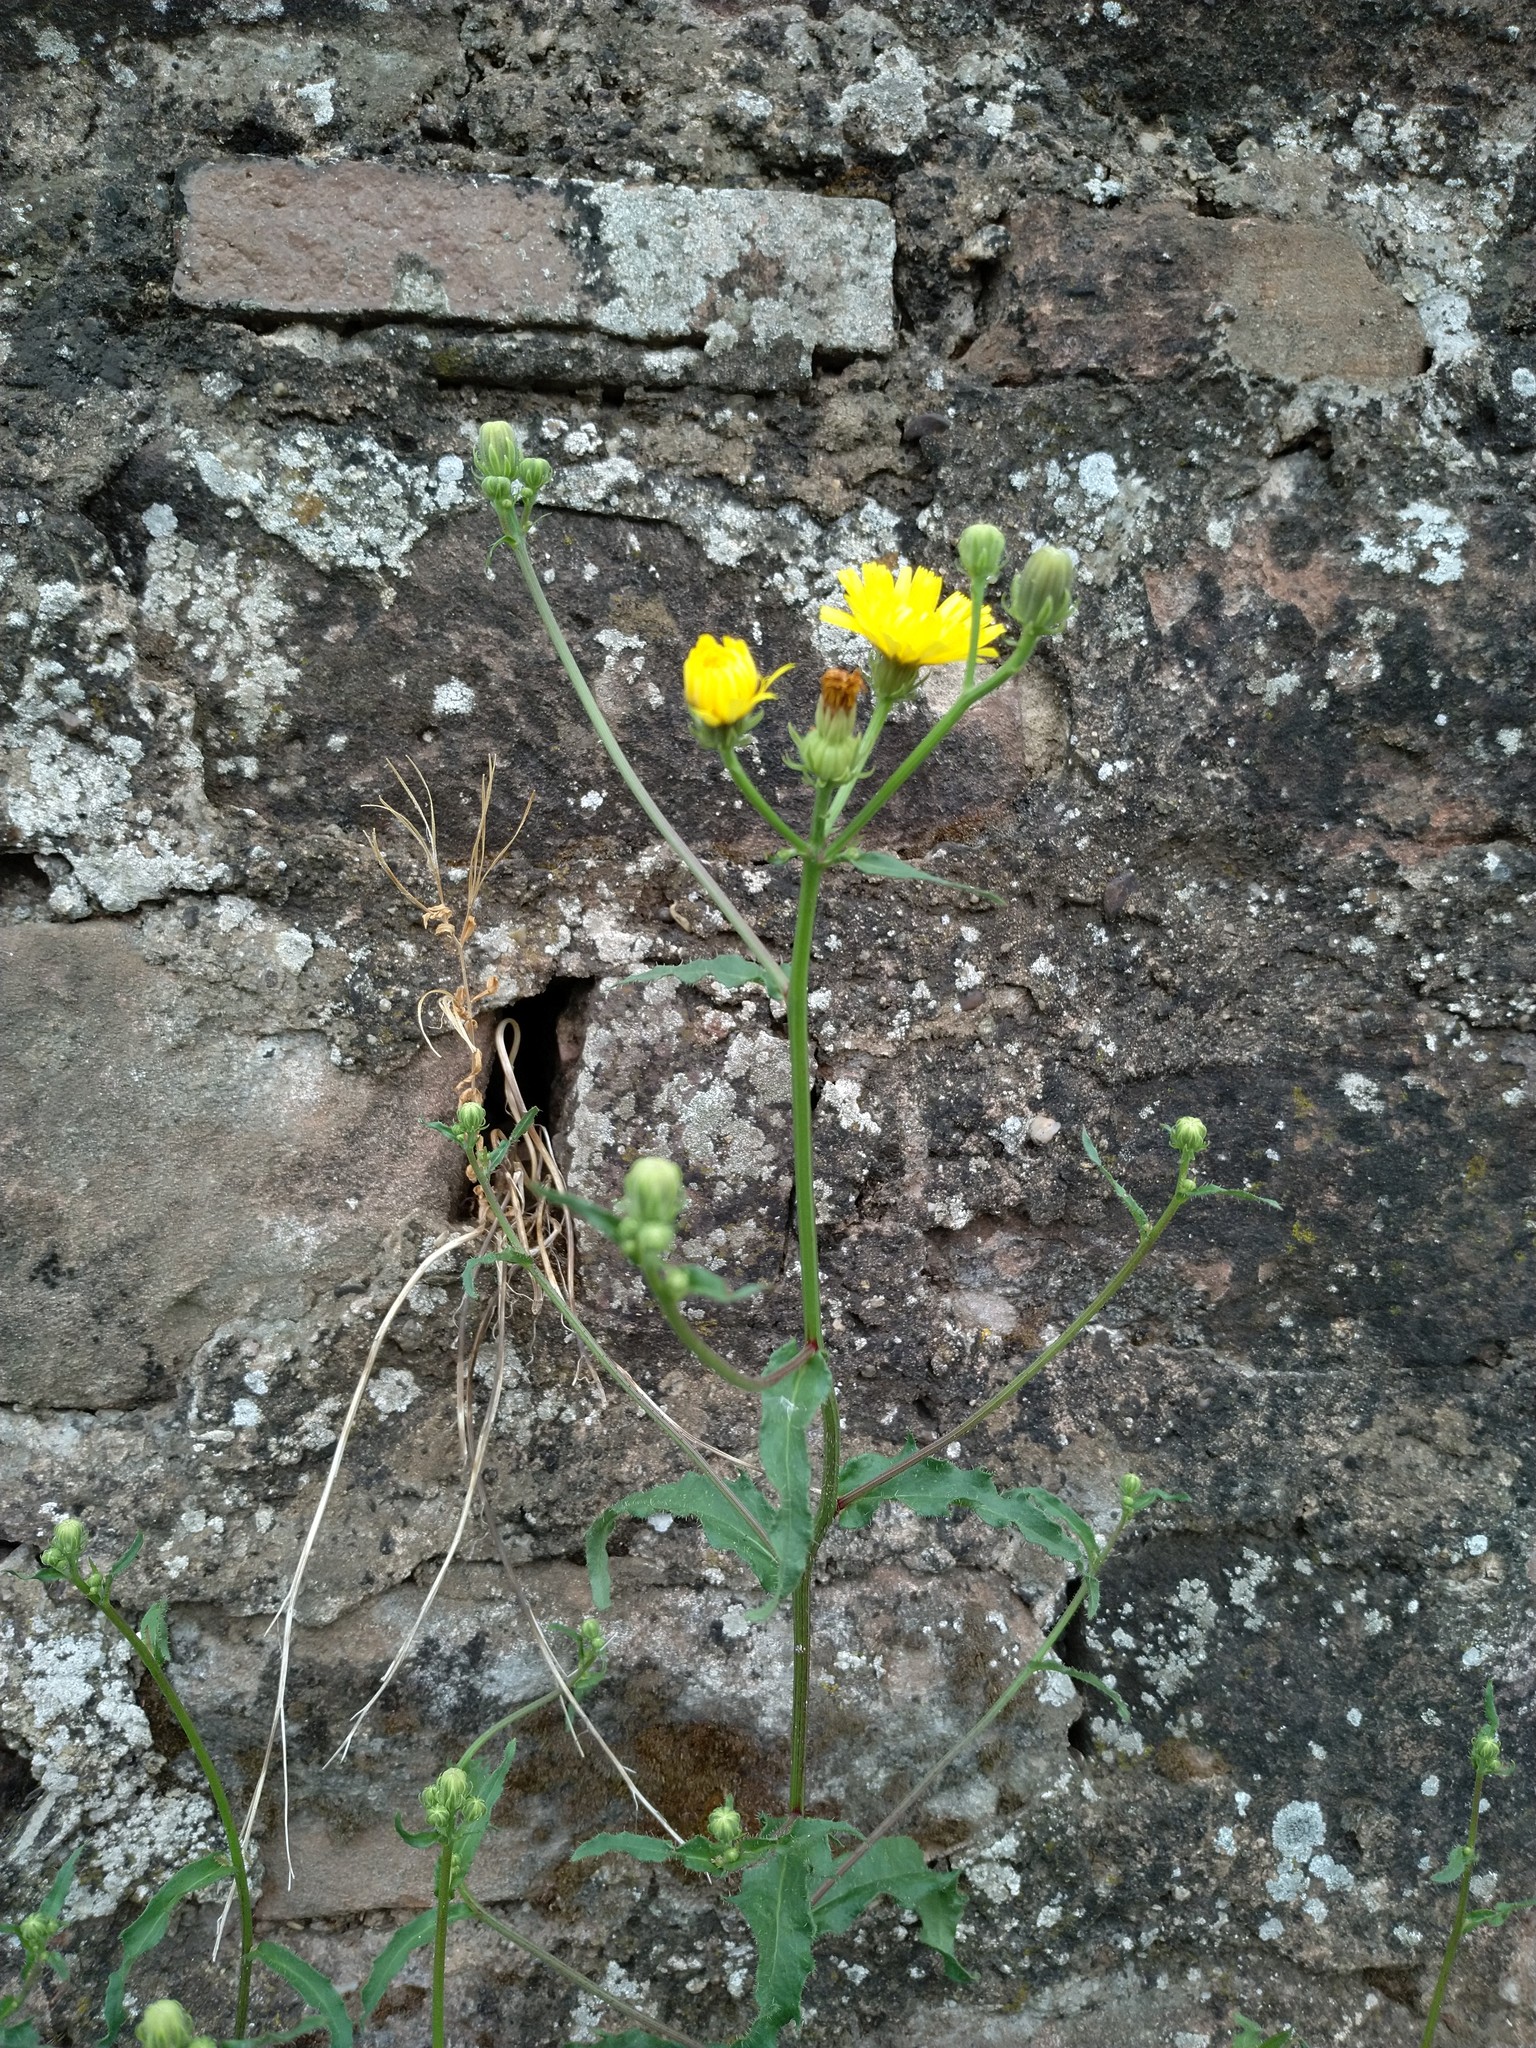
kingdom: Plantae
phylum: Tracheophyta
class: Magnoliopsida
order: Asterales
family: Asteraceae
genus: Picris
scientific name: Picris hieracioides
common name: Hawkweed oxtongue
